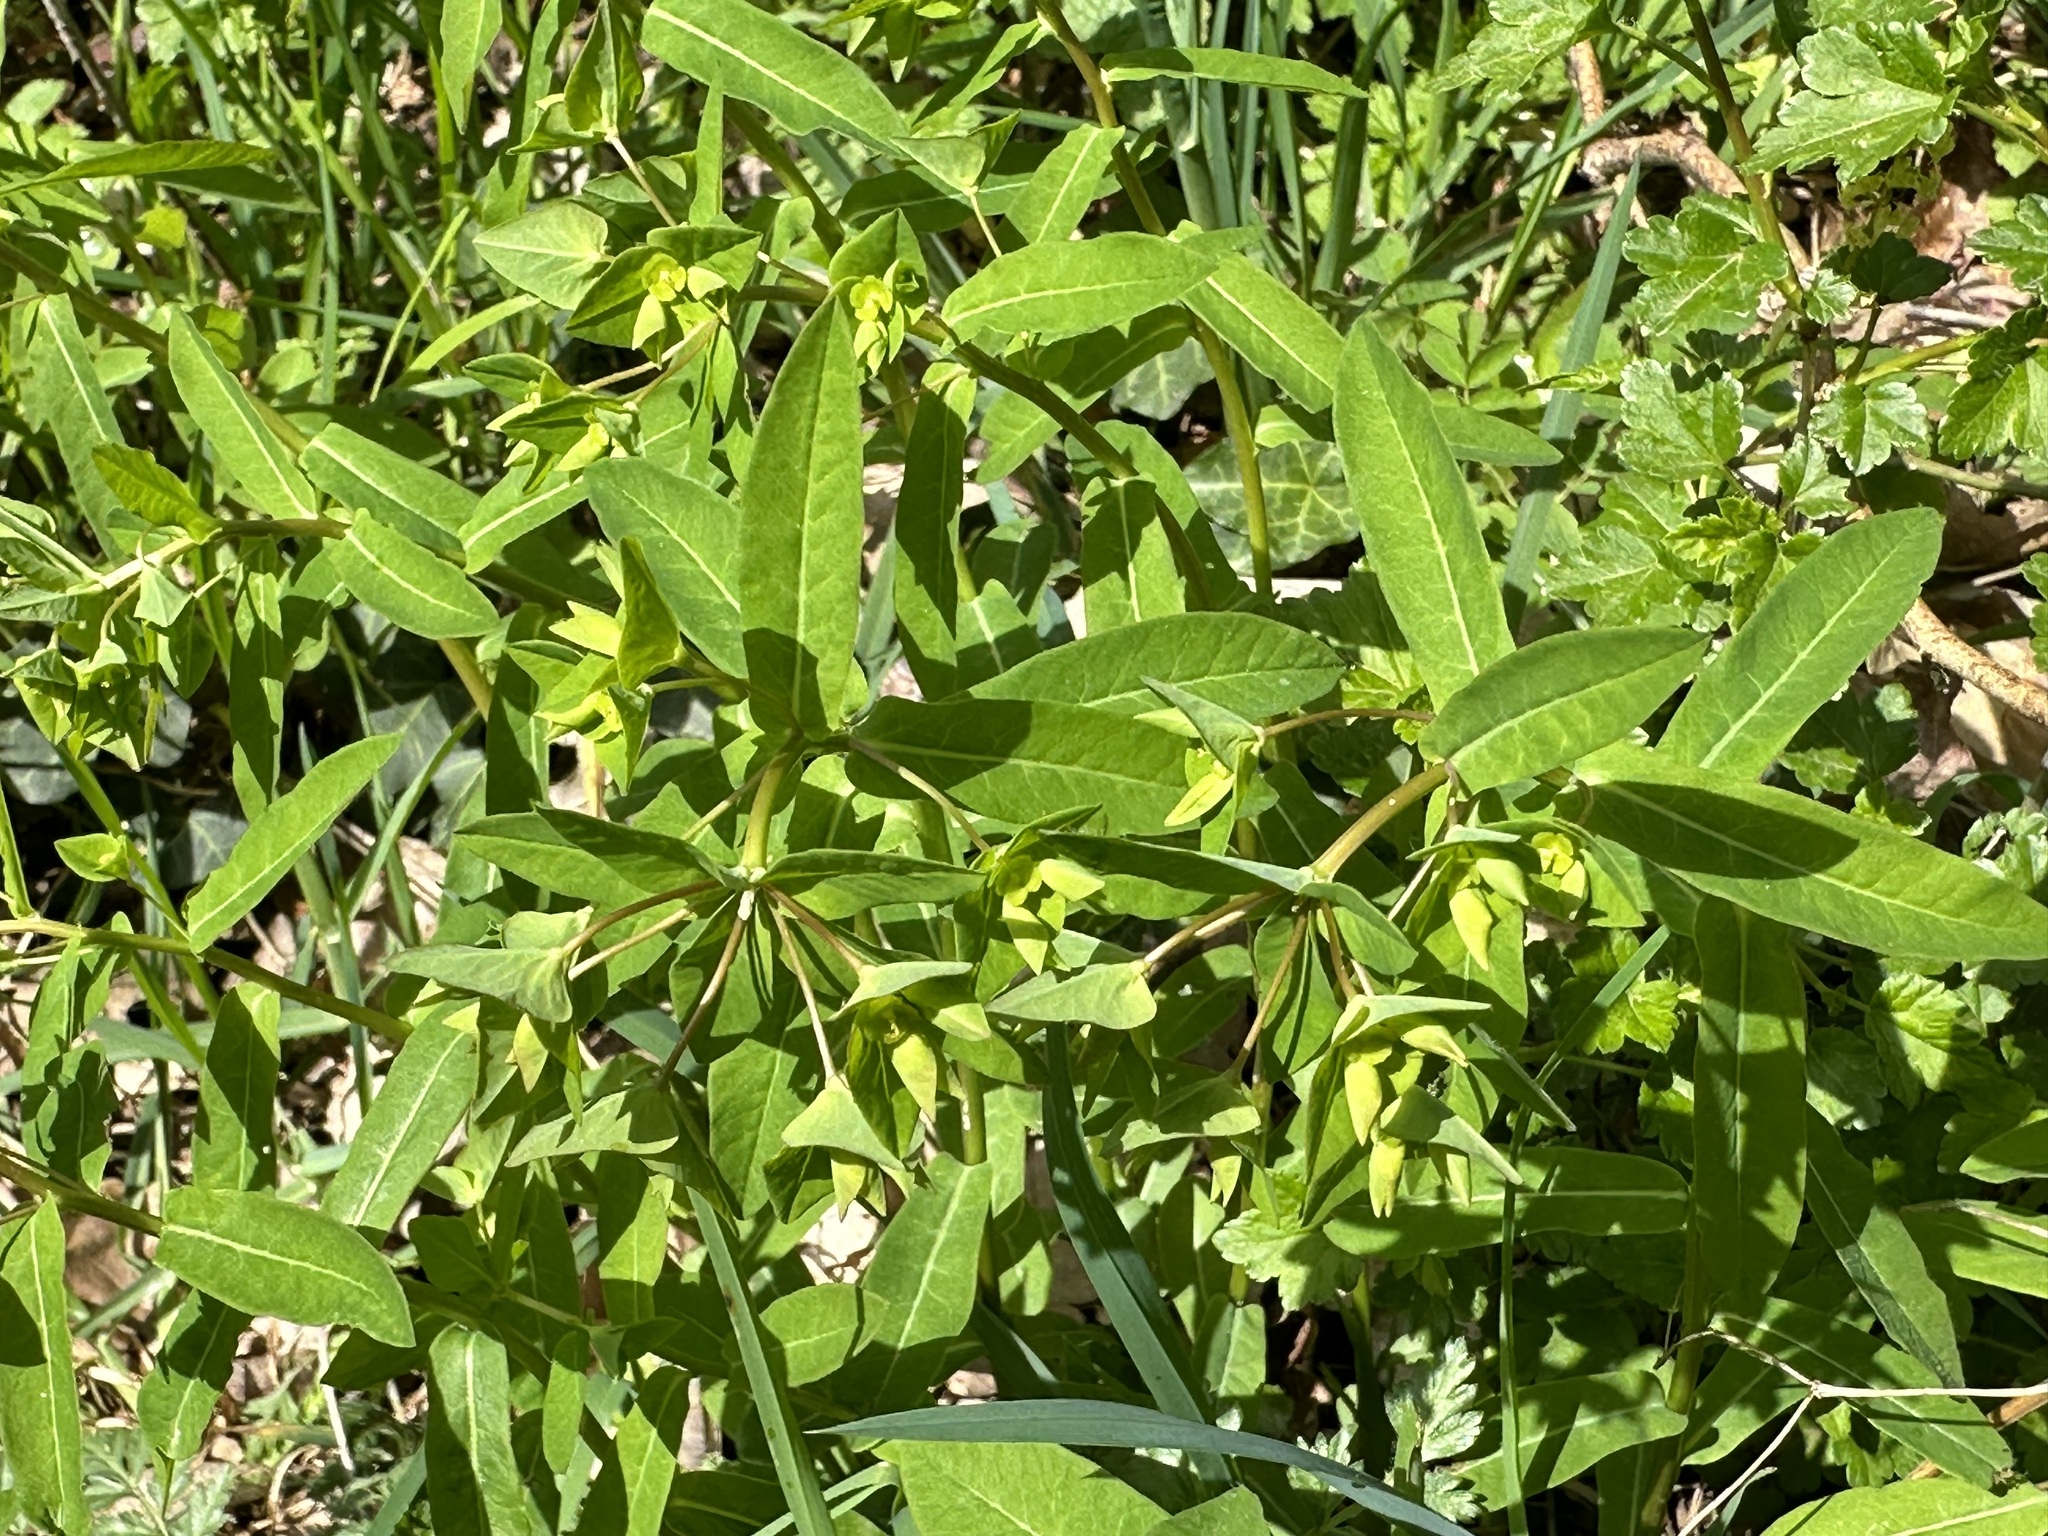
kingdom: Plantae
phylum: Tracheophyta
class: Magnoliopsida
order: Malpighiales
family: Euphorbiaceae
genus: Euphorbia
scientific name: Euphorbia dulcis
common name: Sweet spurge
